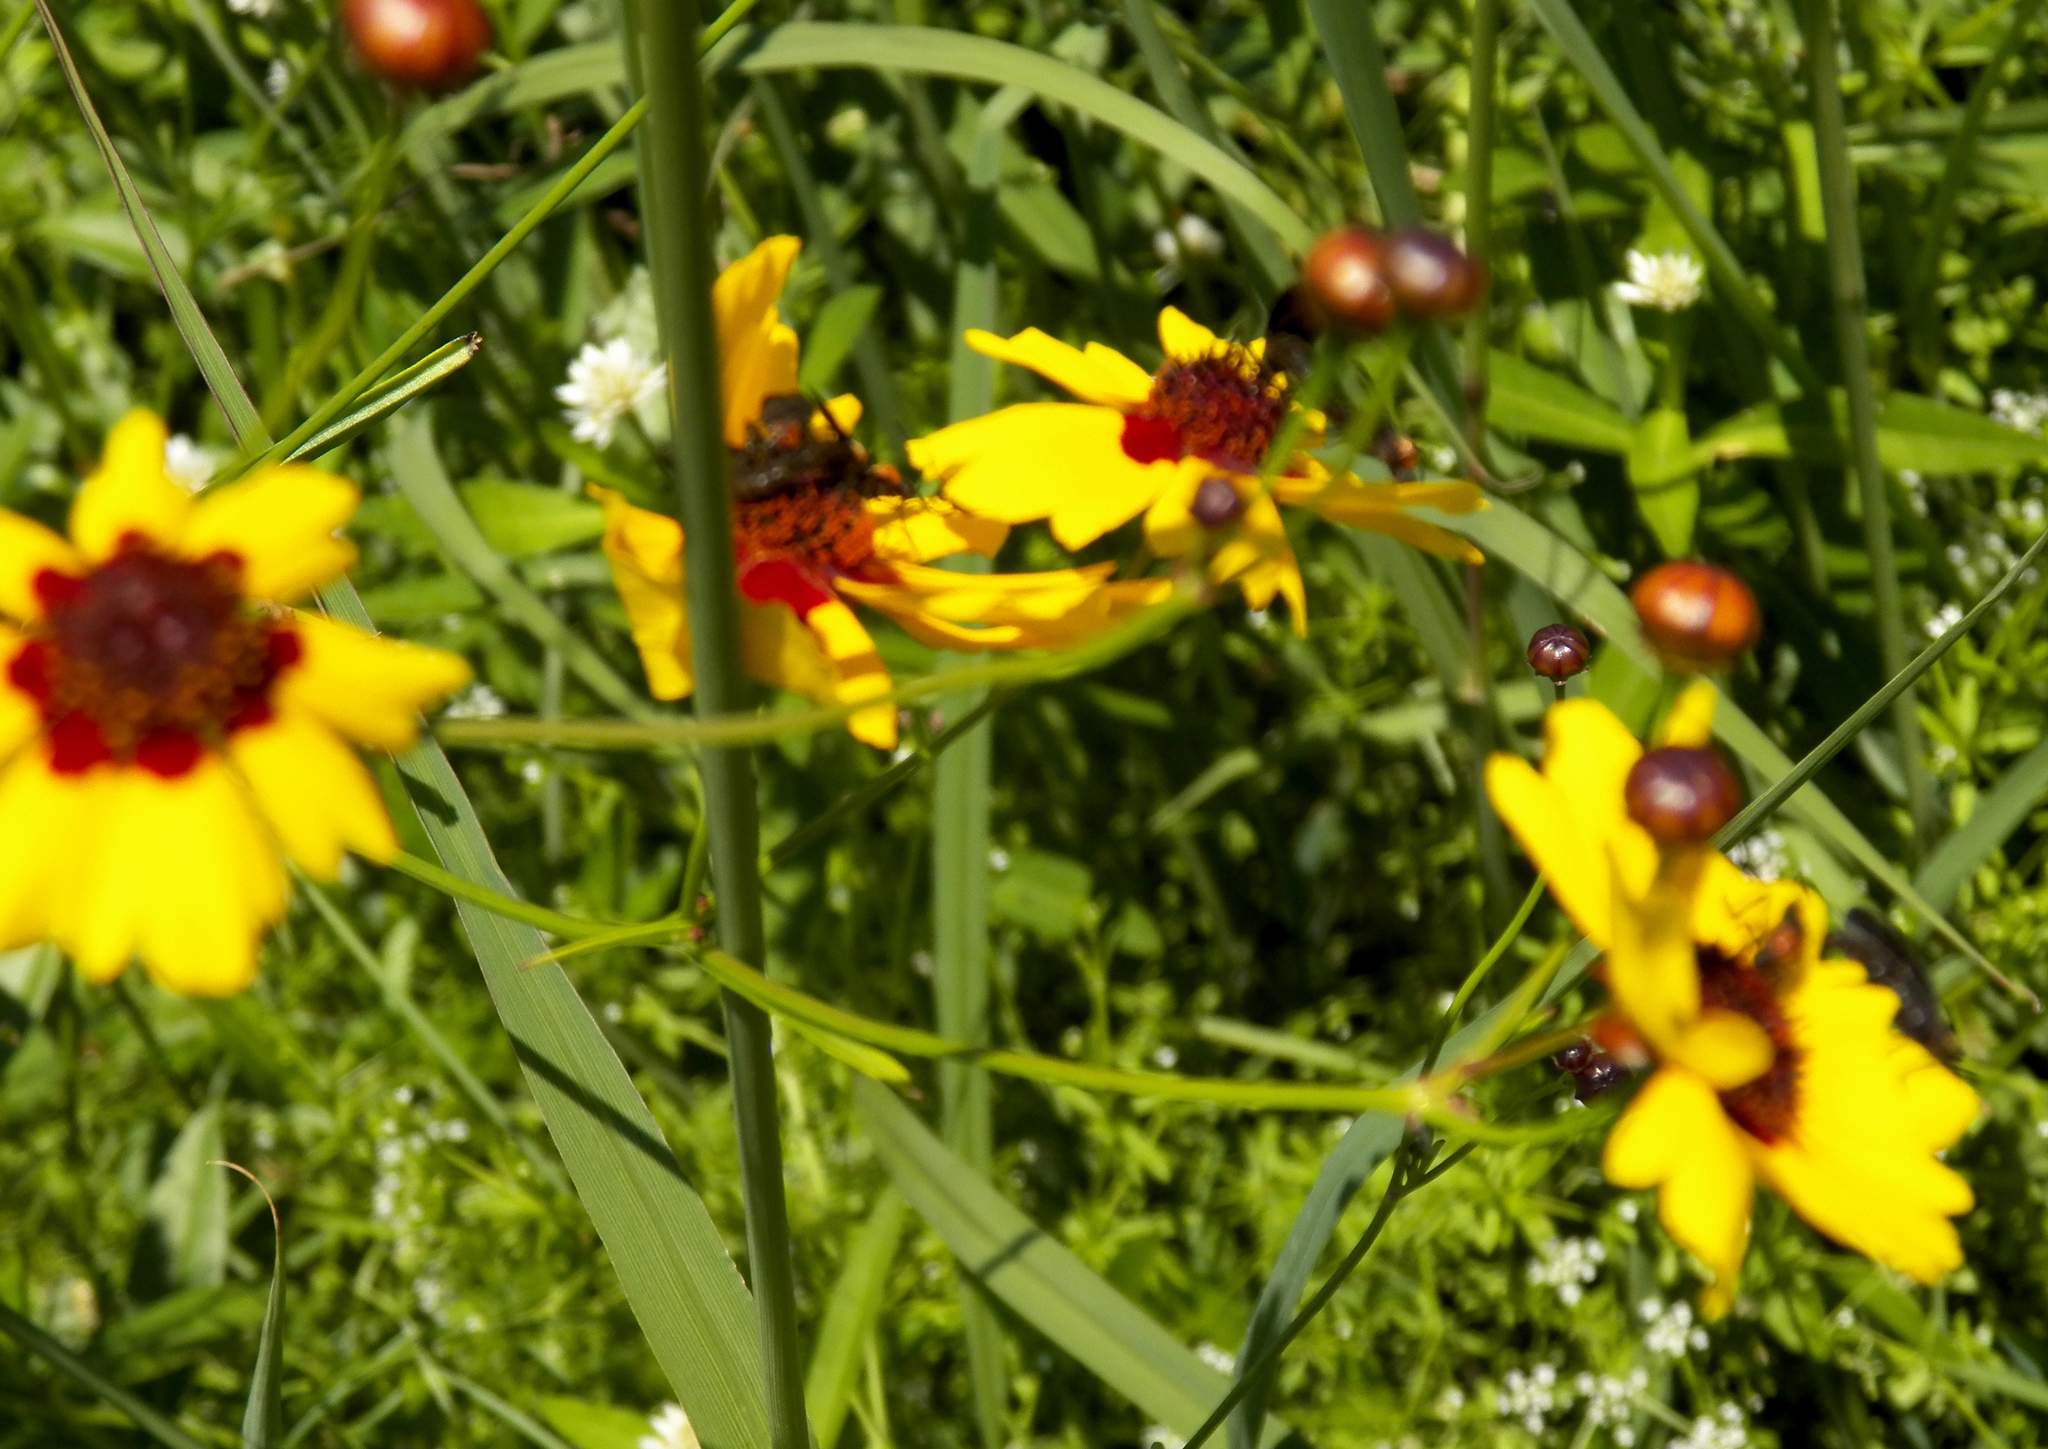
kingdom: Plantae
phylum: Tracheophyta
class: Magnoliopsida
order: Asterales
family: Asteraceae
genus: Coreopsis
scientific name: Coreopsis tinctoria
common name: Garden tickseed
